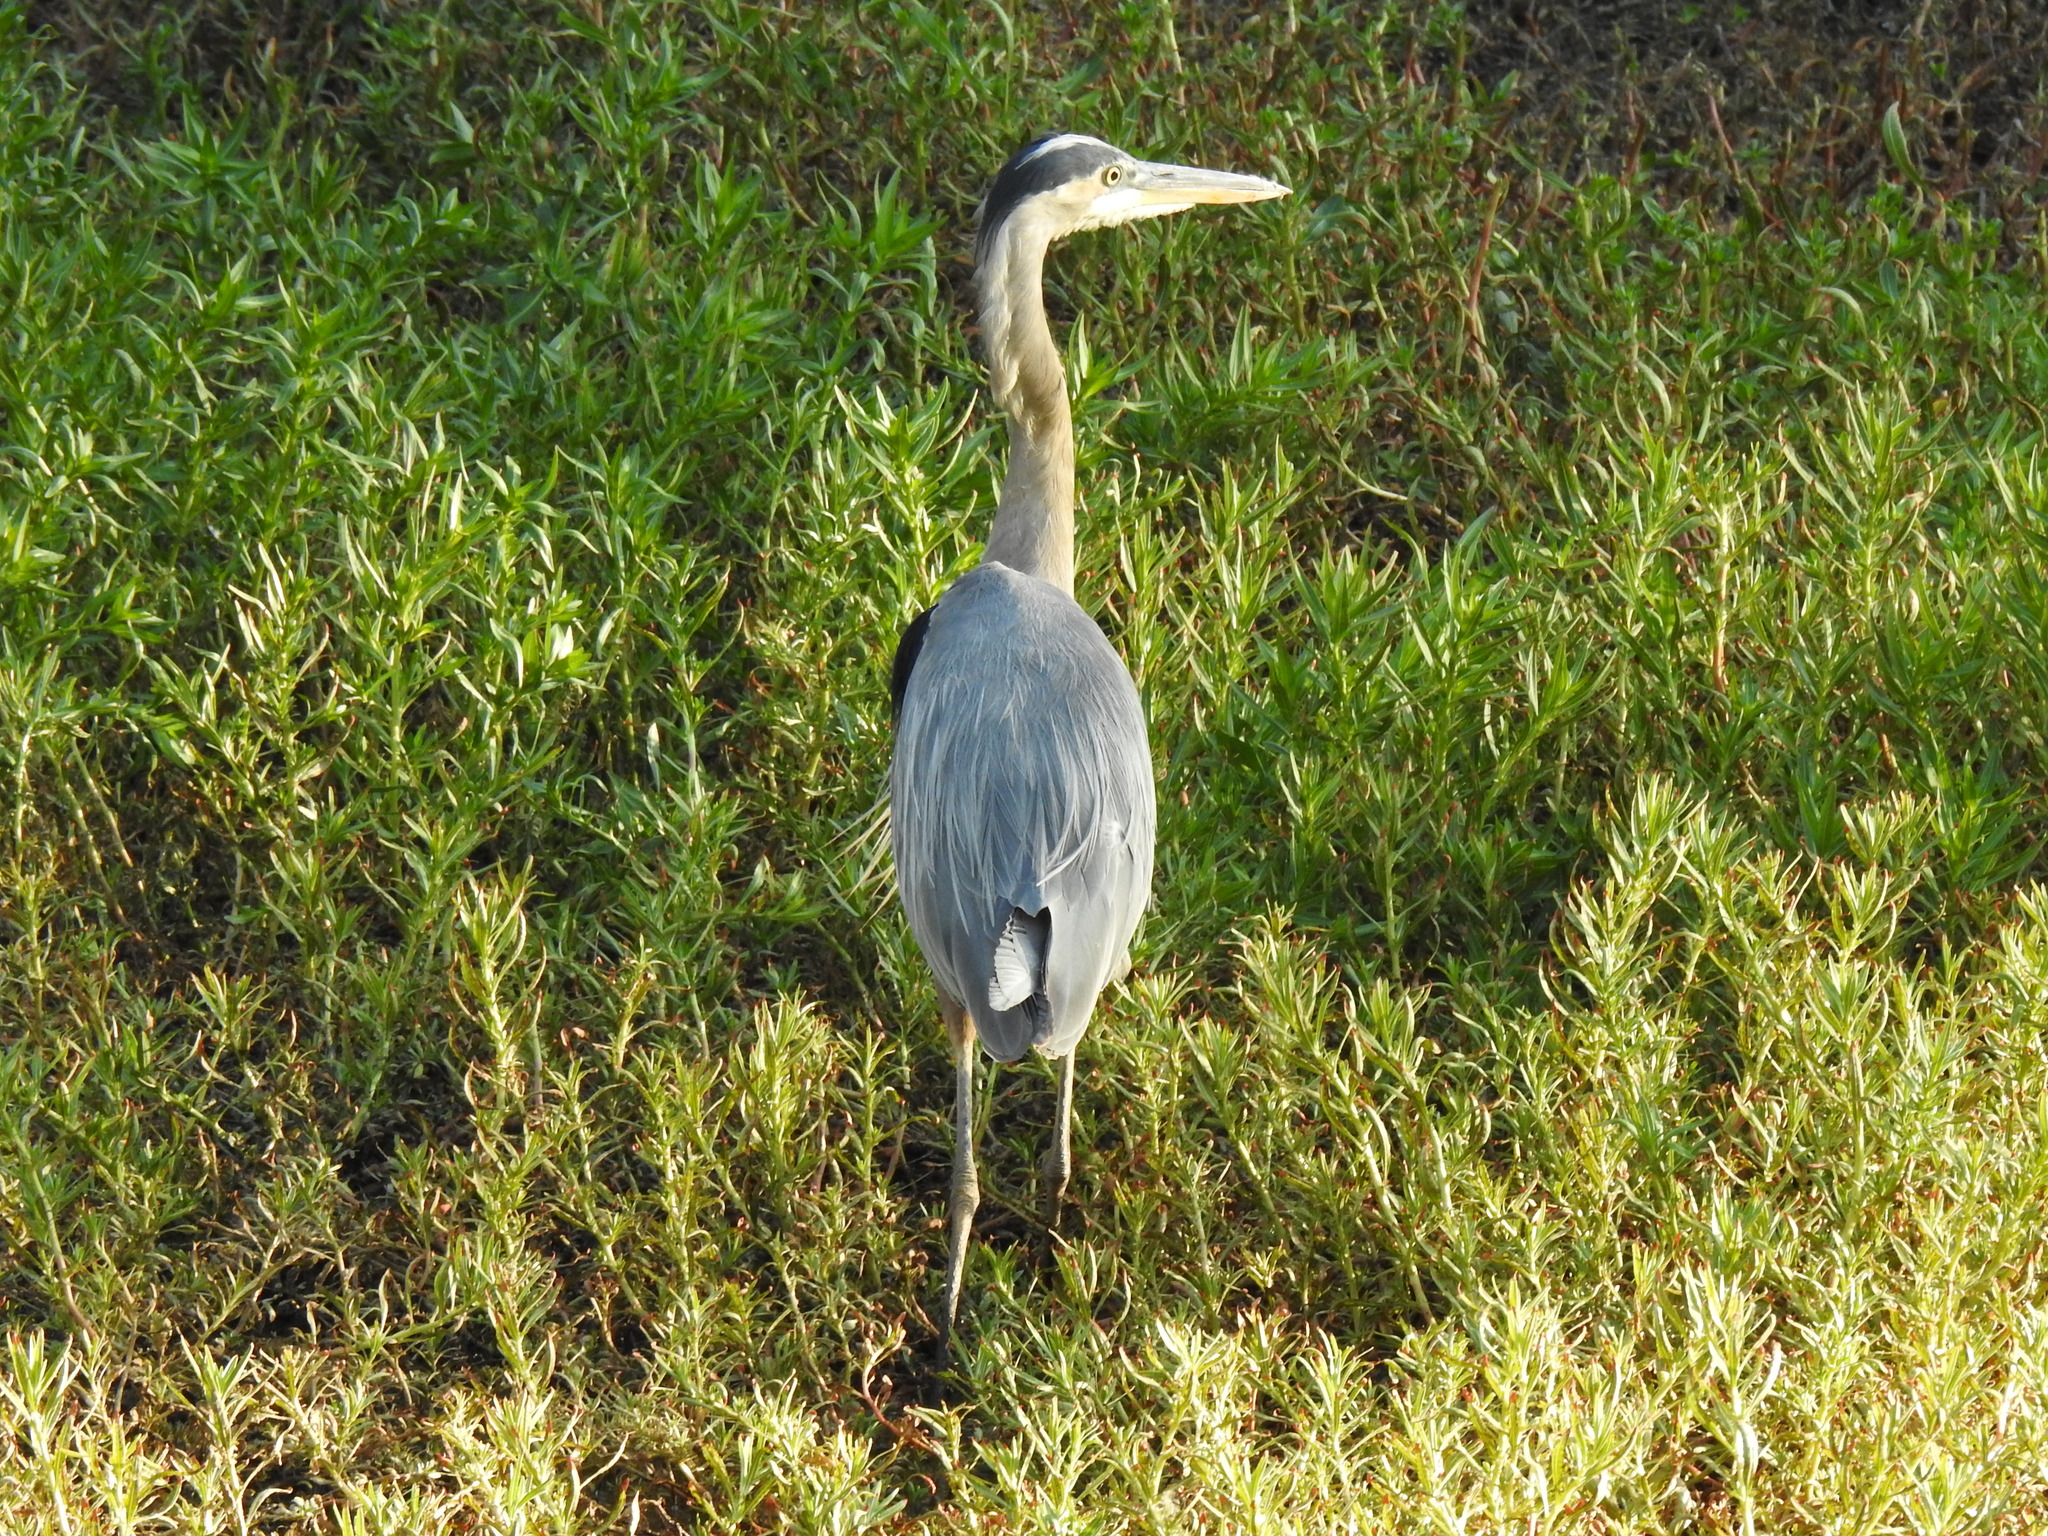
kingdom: Animalia
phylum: Chordata
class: Aves
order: Pelecaniformes
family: Ardeidae
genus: Ardea
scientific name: Ardea herodias
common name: Great blue heron
